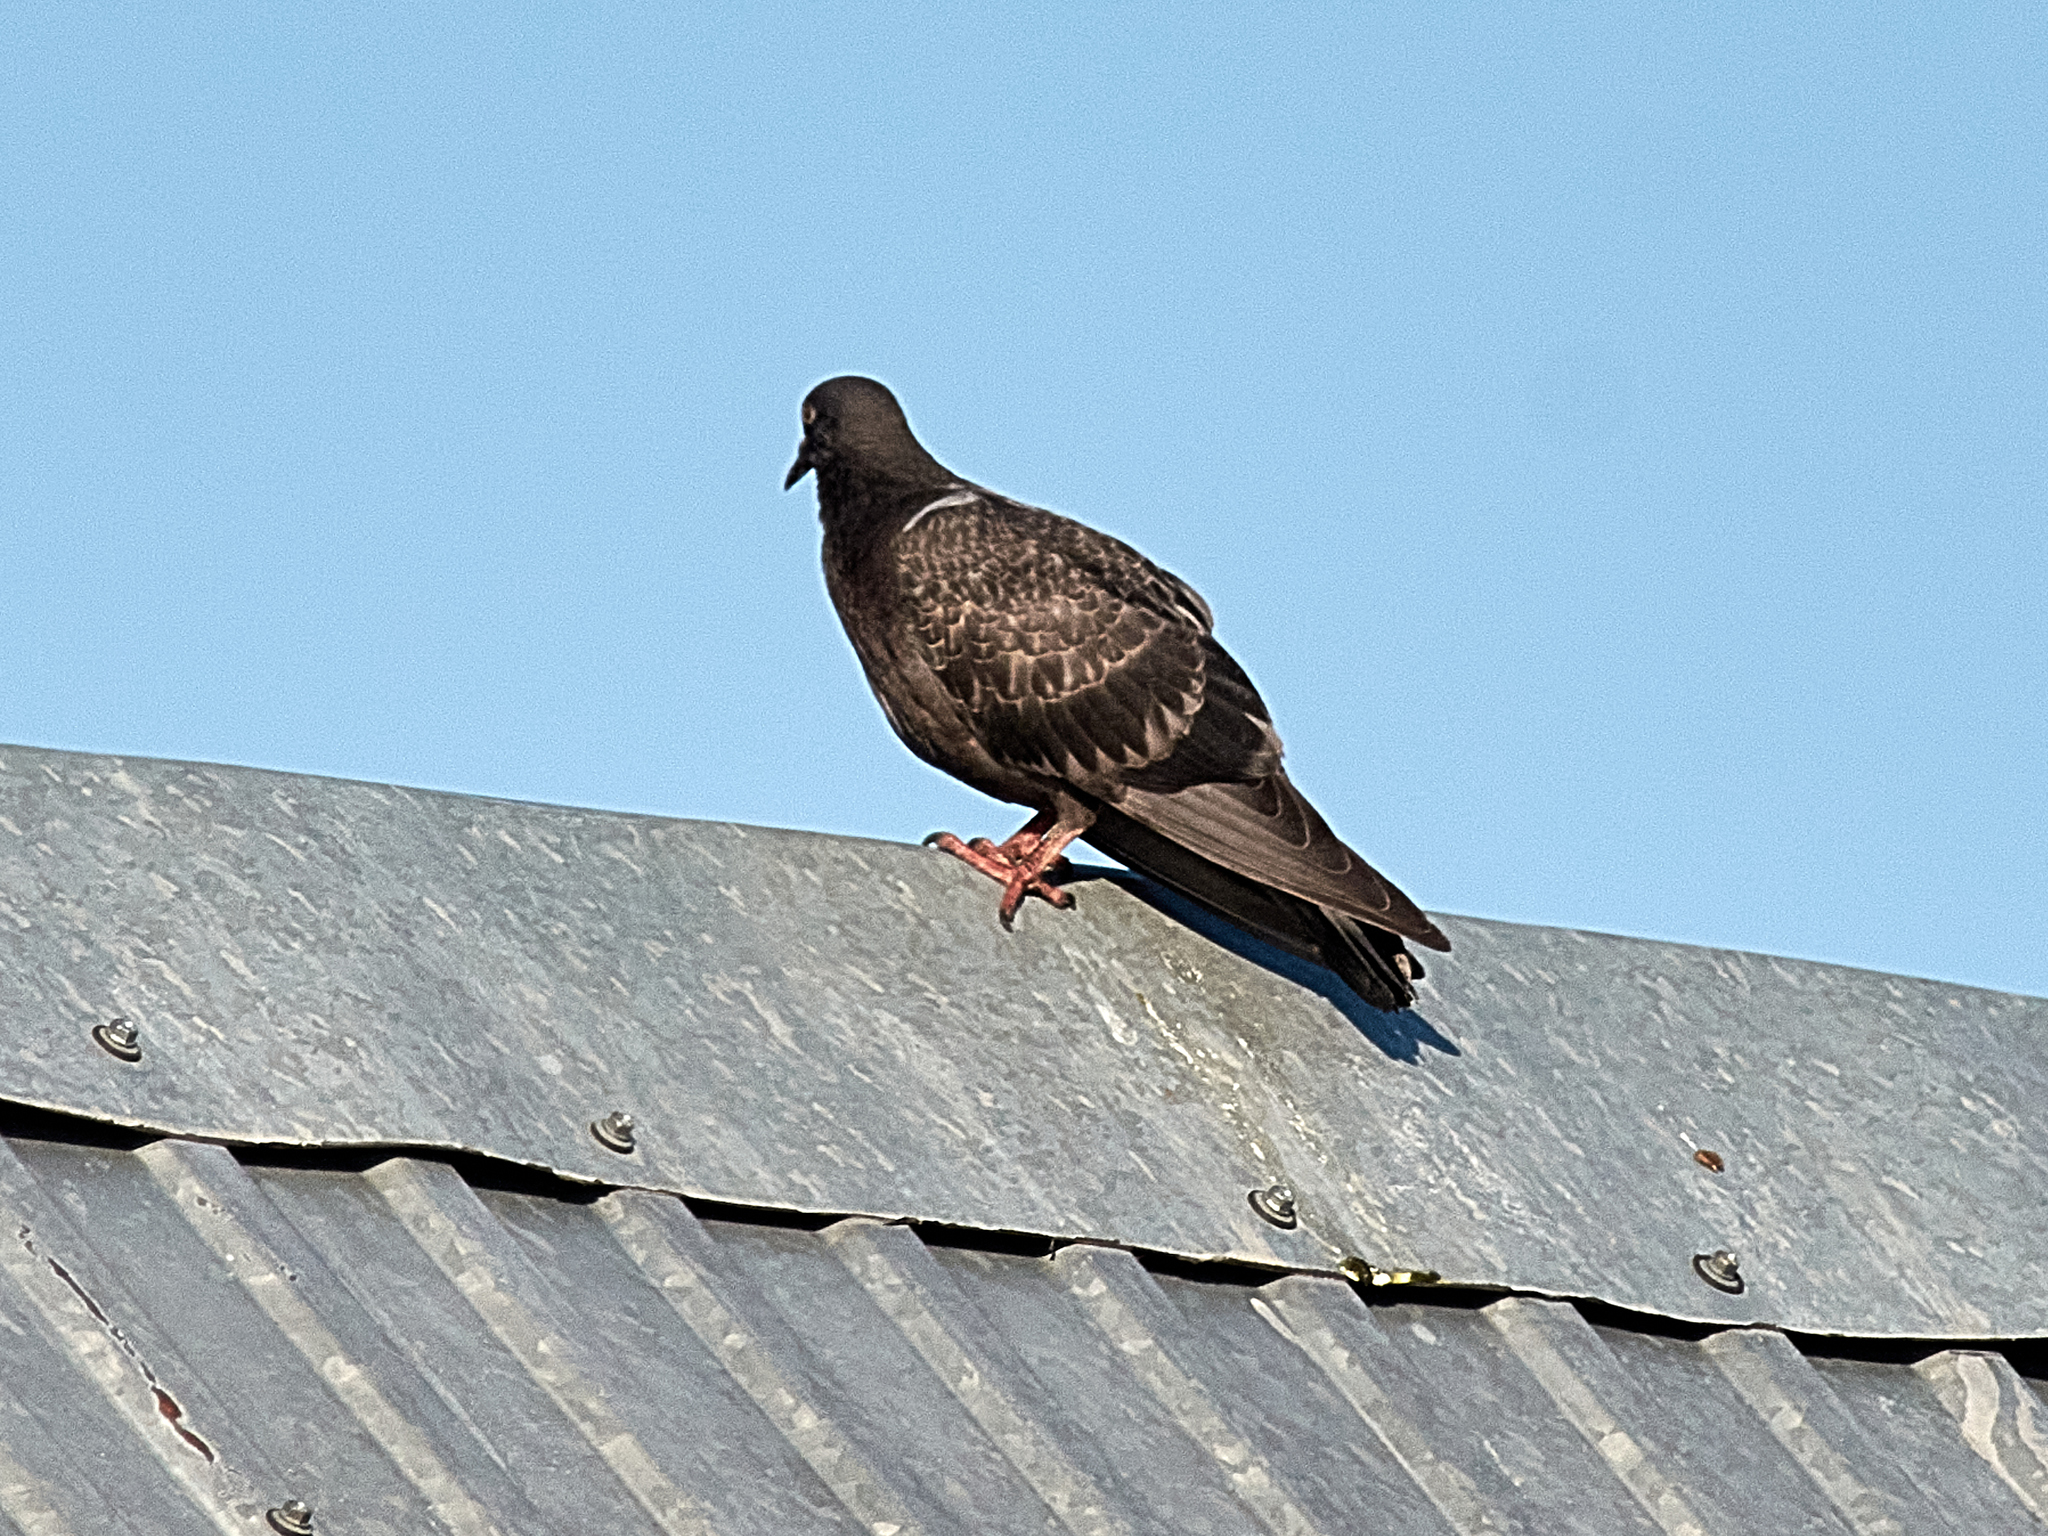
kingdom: Animalia
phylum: Chordata
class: Aves
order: Columbiformes
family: Columbidae
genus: Columba
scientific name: Columba livia
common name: Rock pigeon
